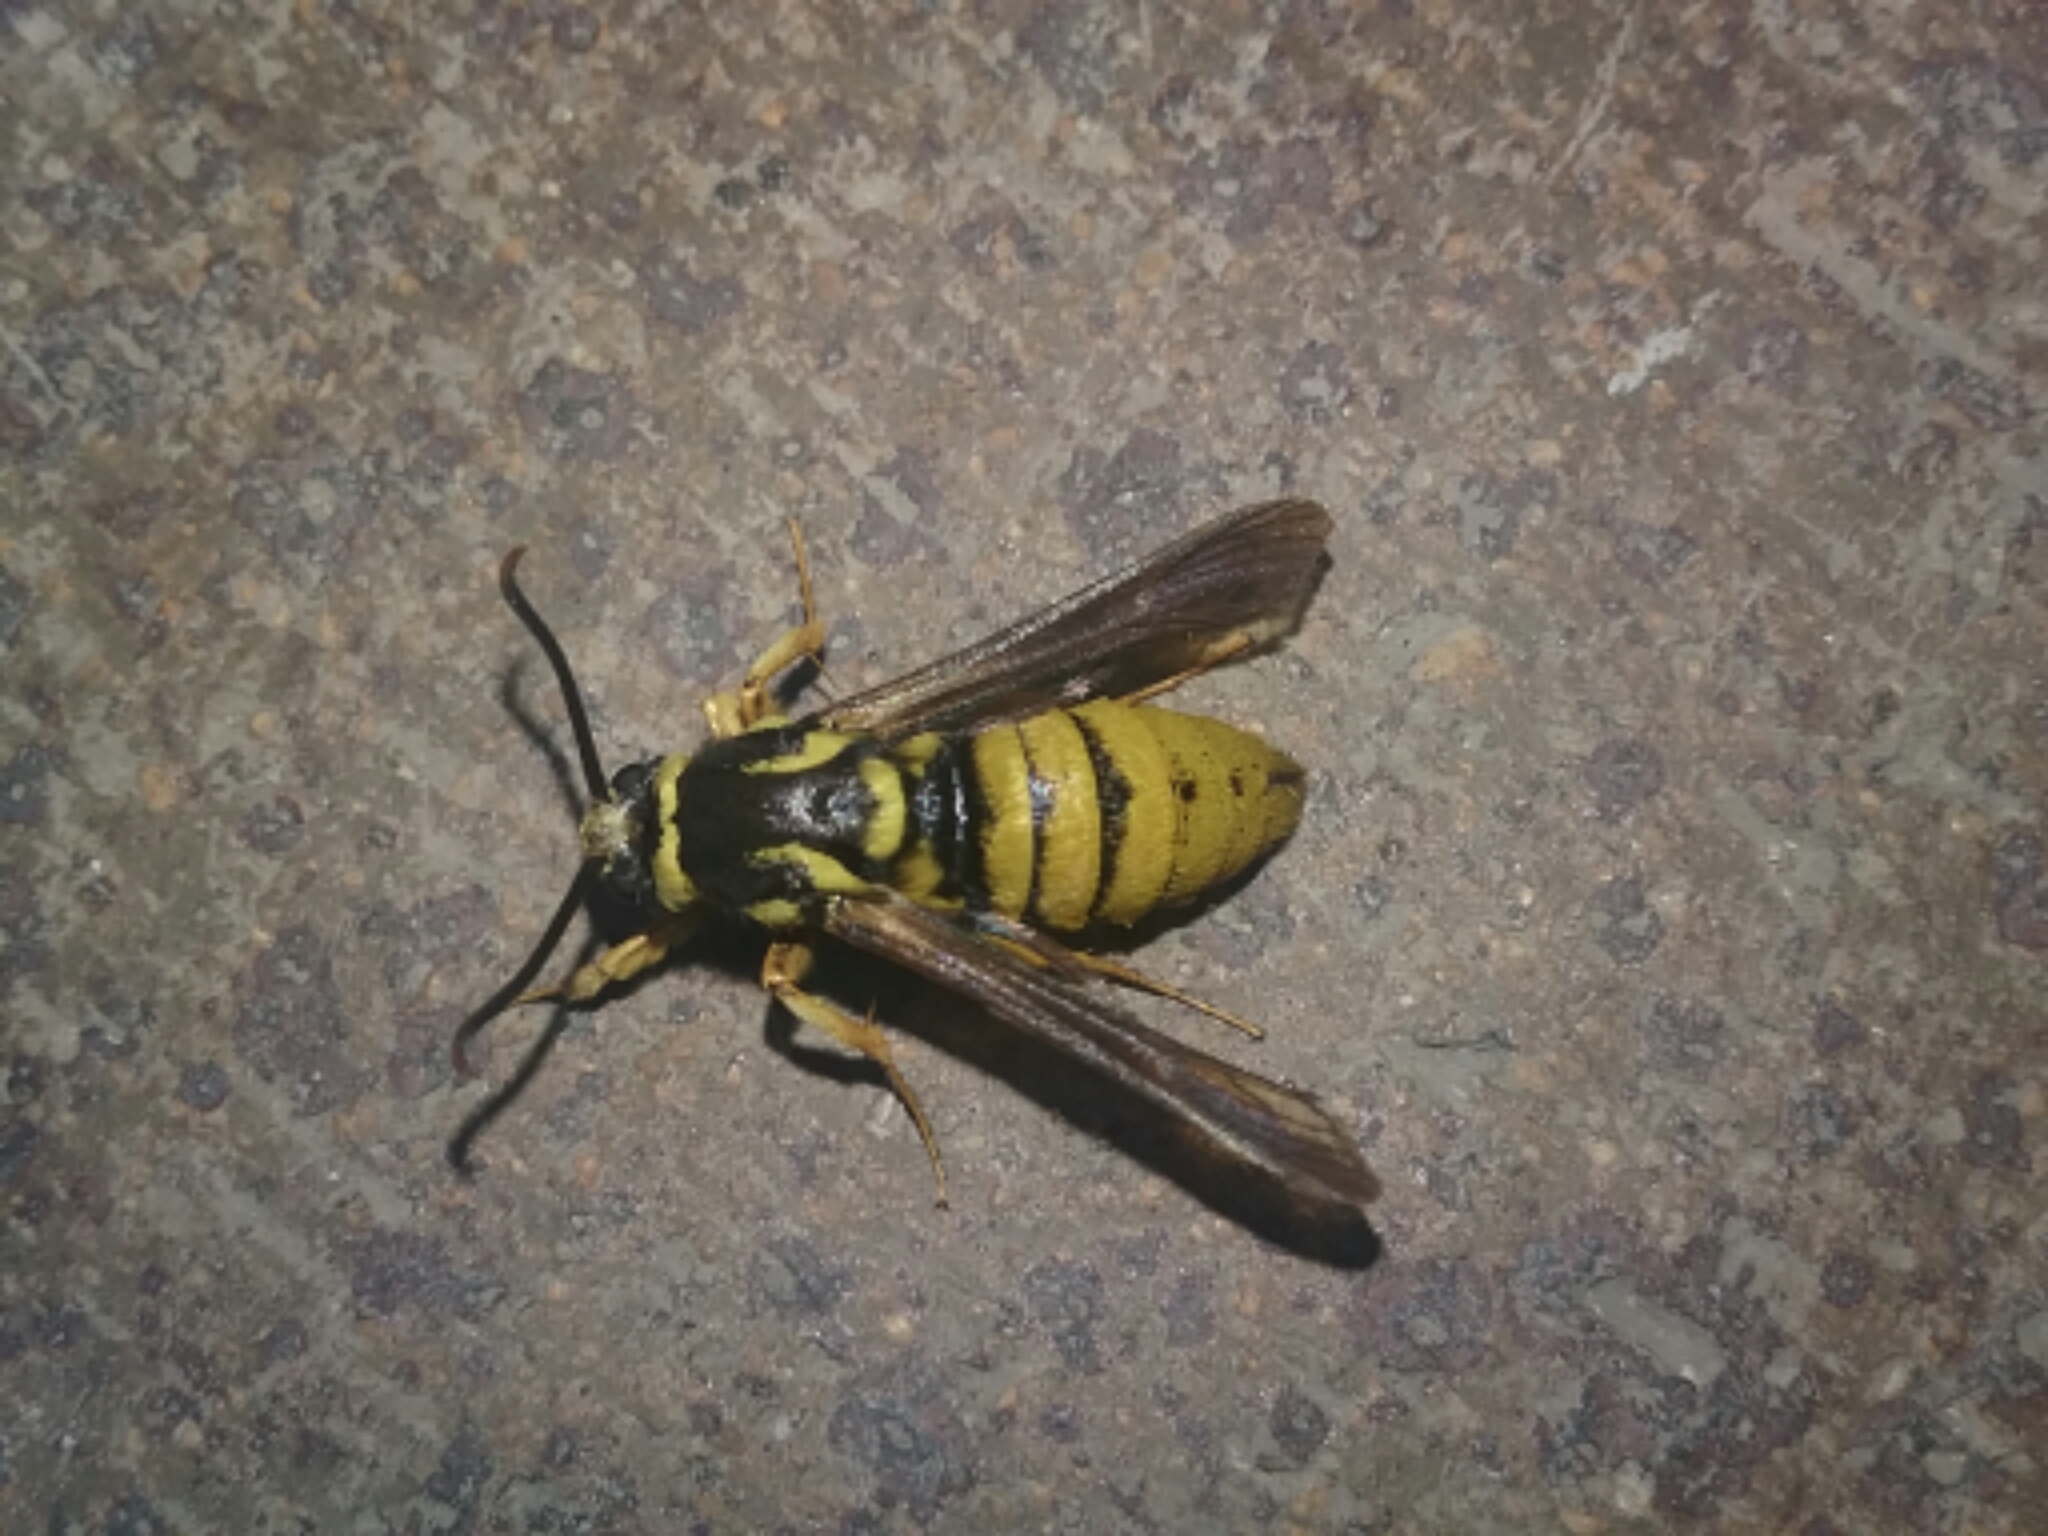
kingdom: Animalia
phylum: Arthropoda
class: Insecta
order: Lepidoptera
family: Sesiidae
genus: Paranthrene
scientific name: Paranthrene simulans
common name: Hornet clearwing moth
